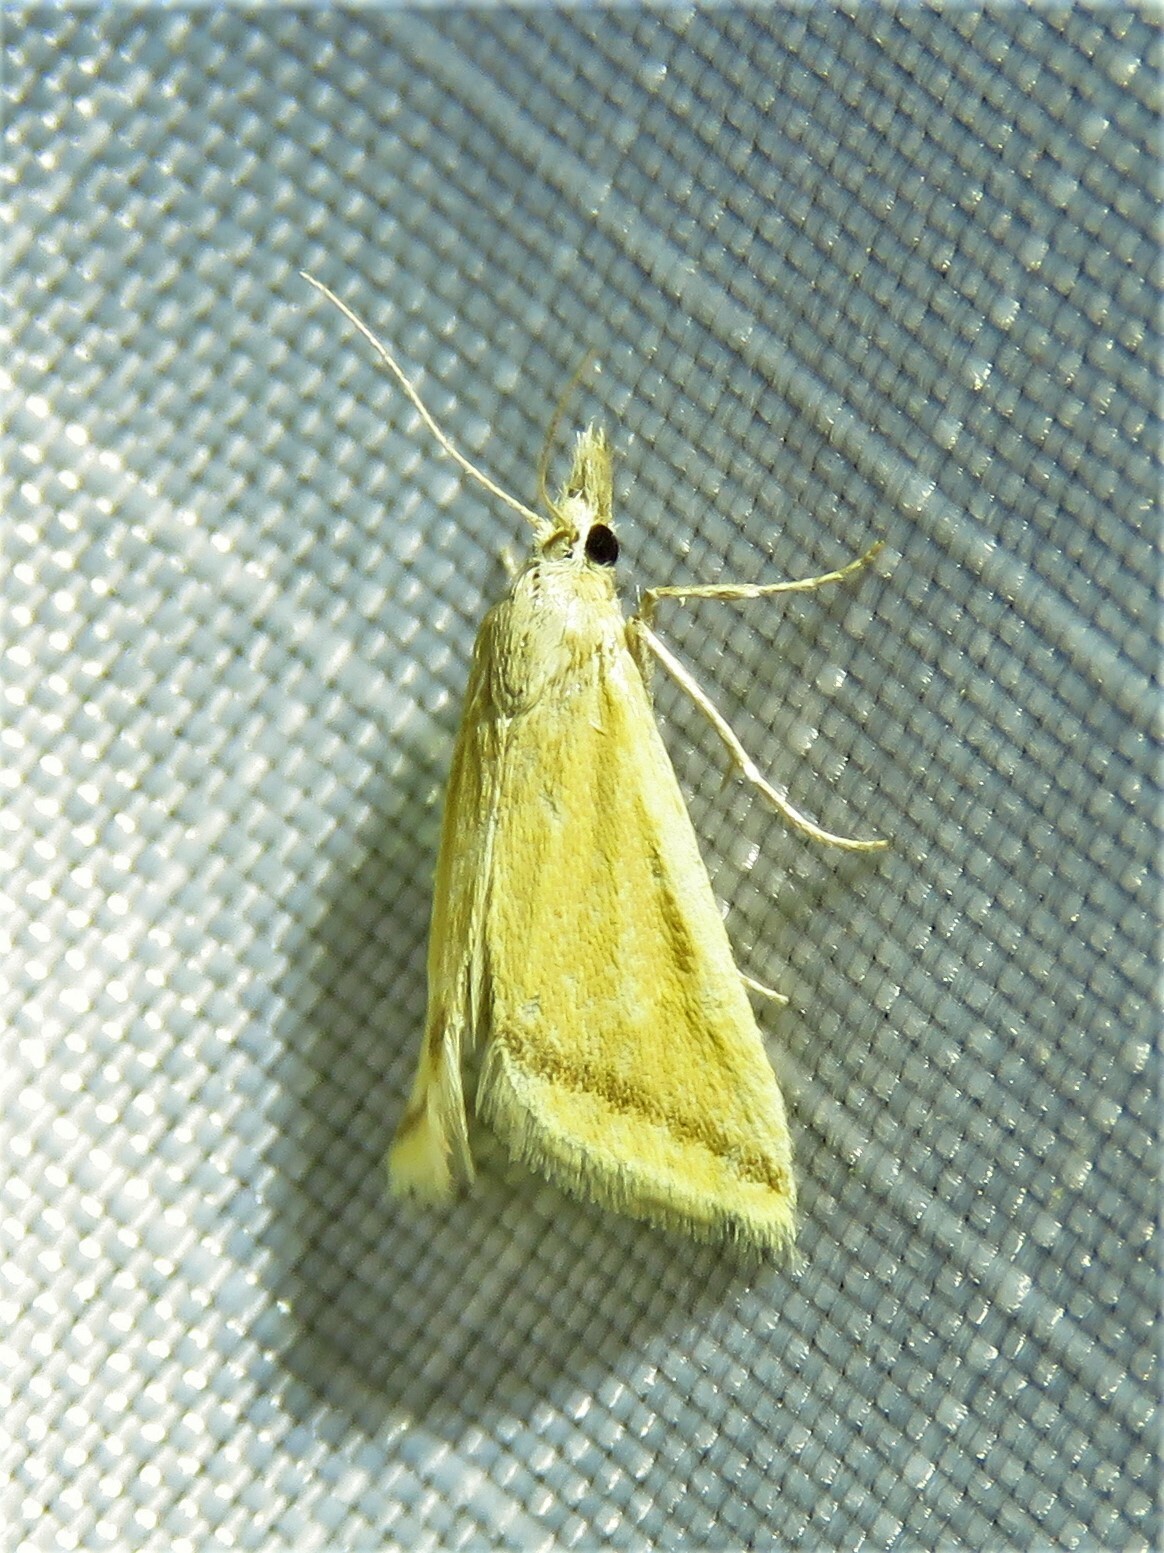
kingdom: Animalia
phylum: Arthropoda
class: Insecta
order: Lepidoptera
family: Crambidae
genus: Microtheoris
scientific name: Microtheoris vibicalis
